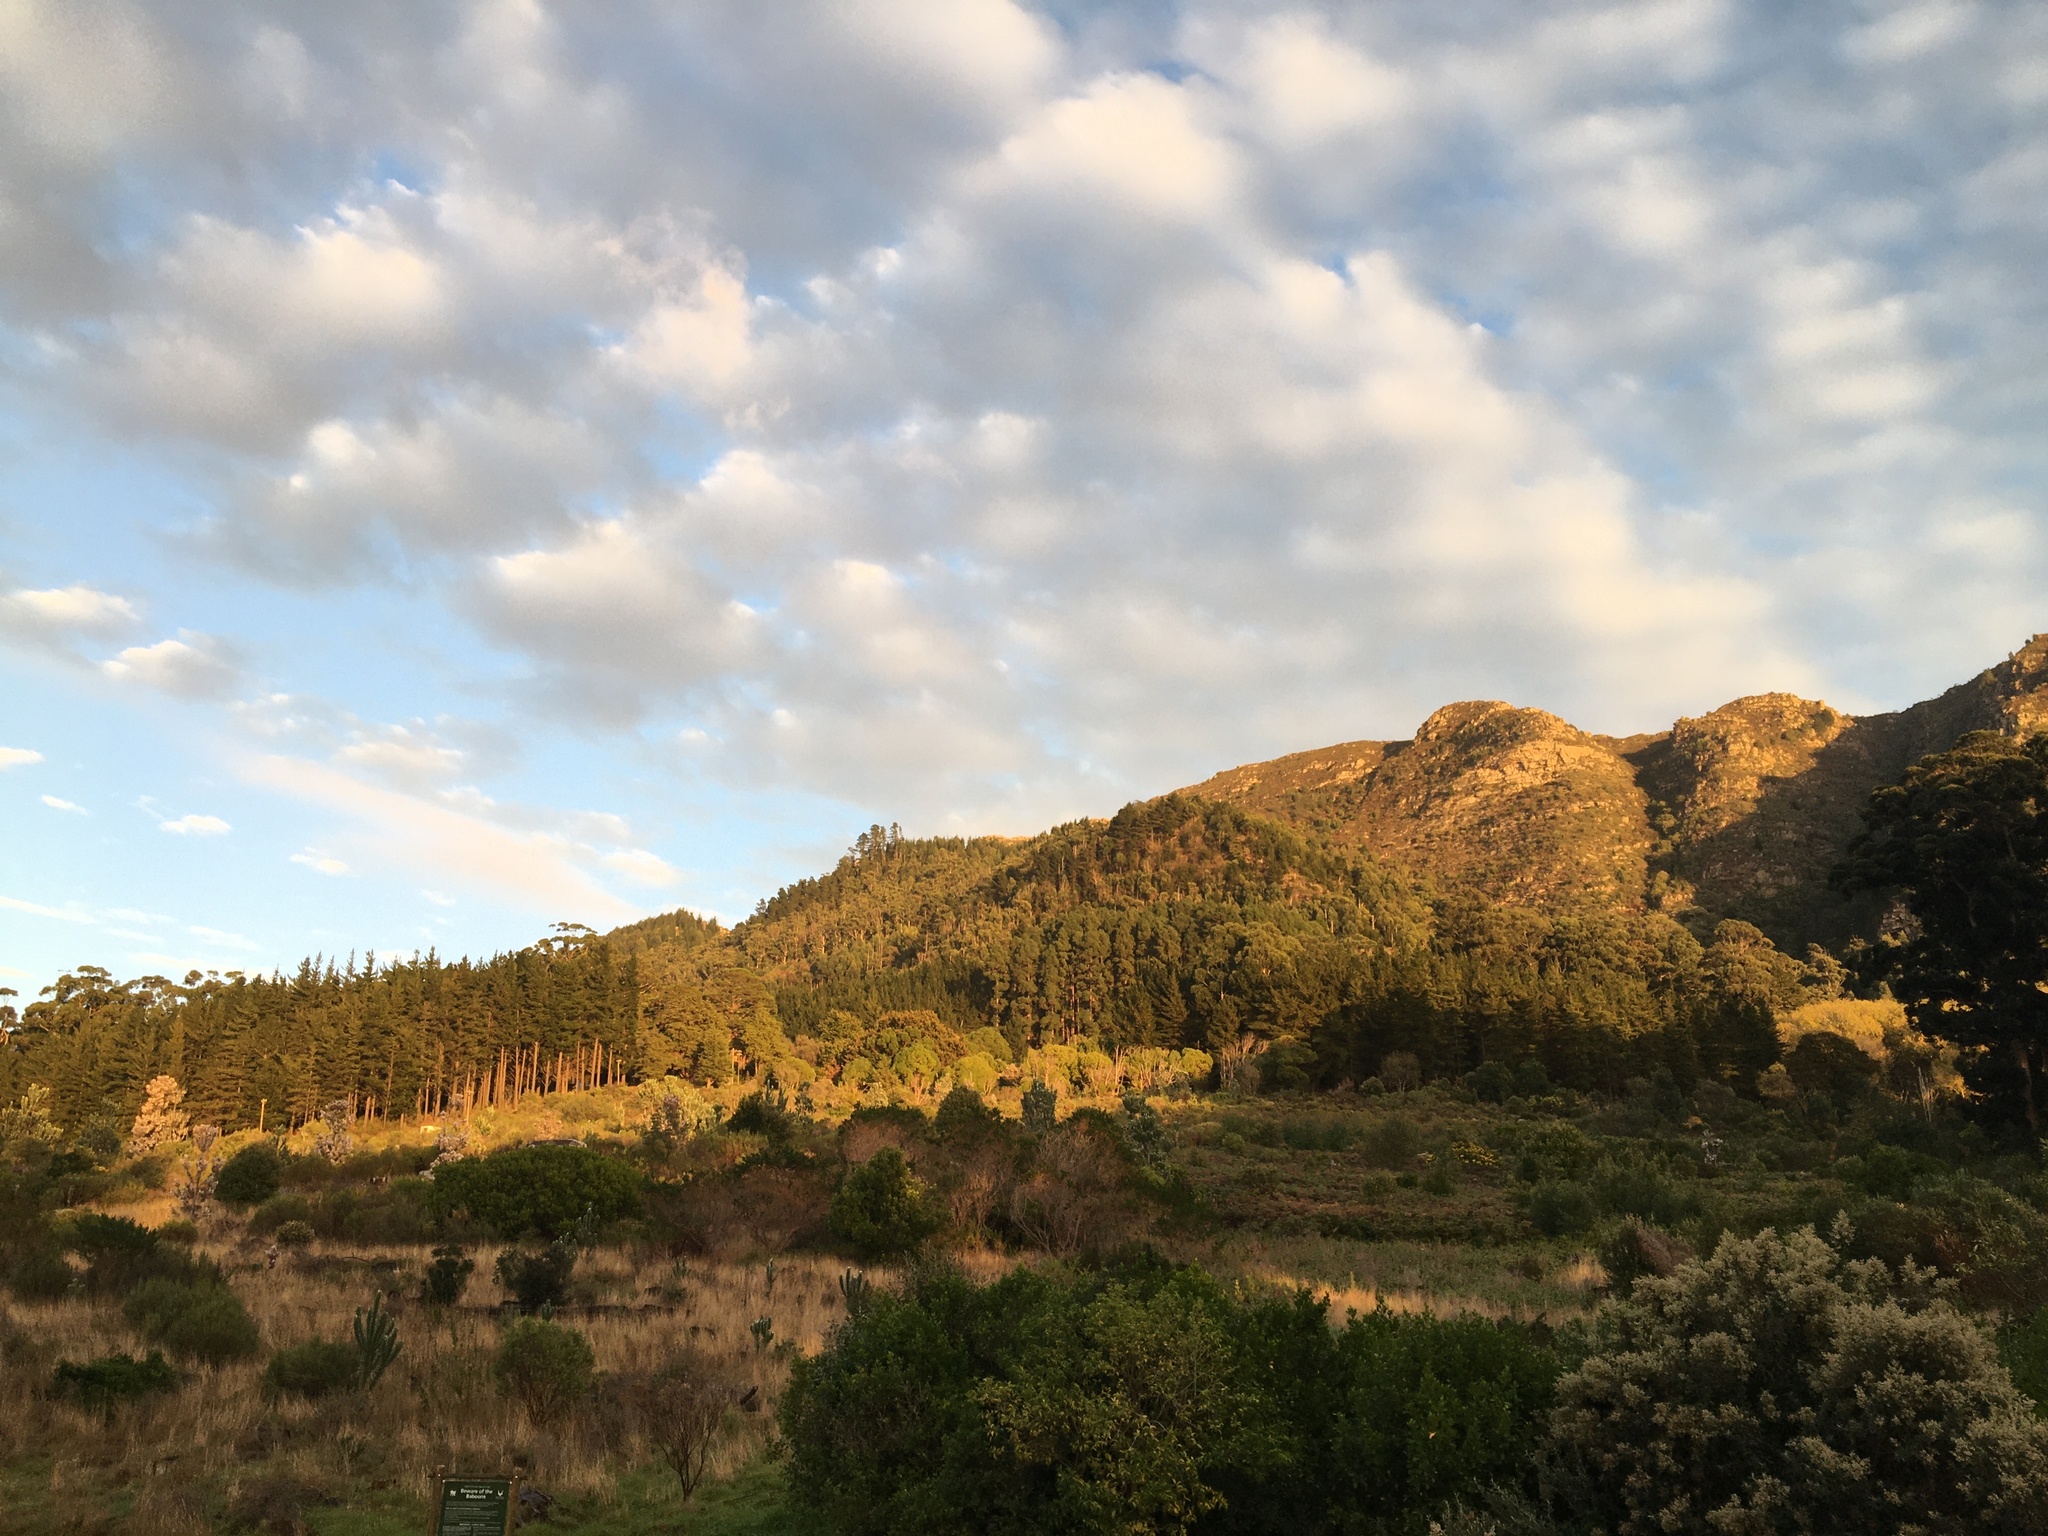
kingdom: Plantae
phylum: Tracheophyta
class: Magnoliopsida
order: Asterales
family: Asteraceae
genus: Helichrysum
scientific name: Helichrysum foetidum
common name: Stinking everlasting
